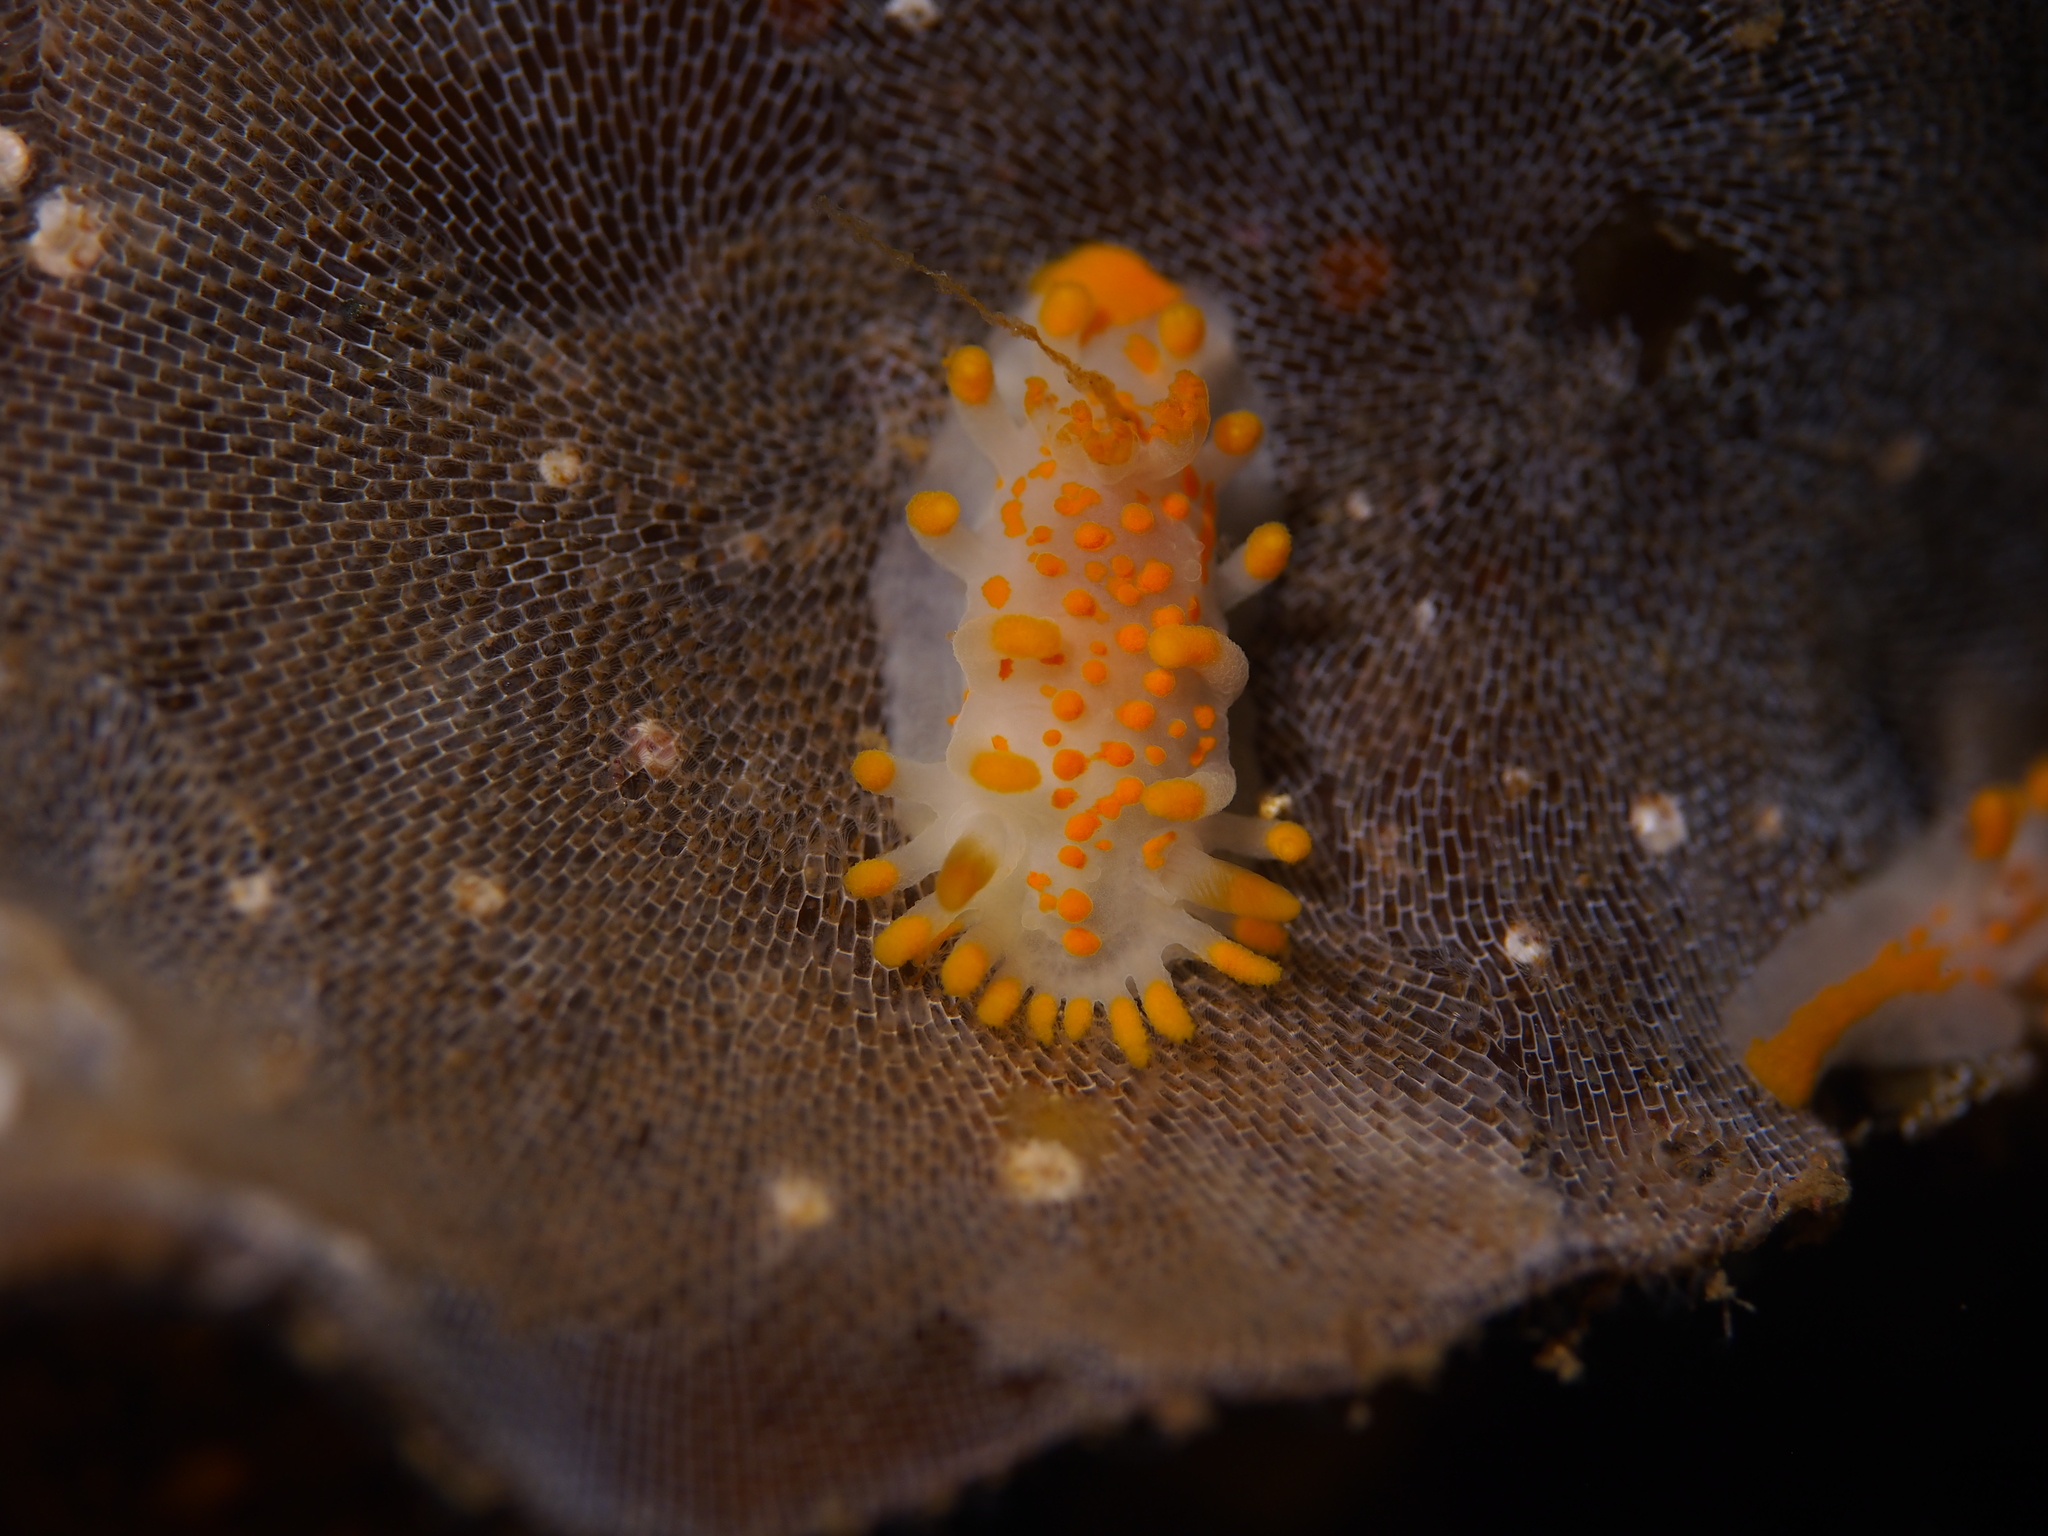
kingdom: Animalia
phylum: Mollusca
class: Gastropoda
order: Nudibranchia
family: Polyceridae
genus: Limacia
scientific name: Limacia clavigera
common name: Orange-clubbed sea slug
